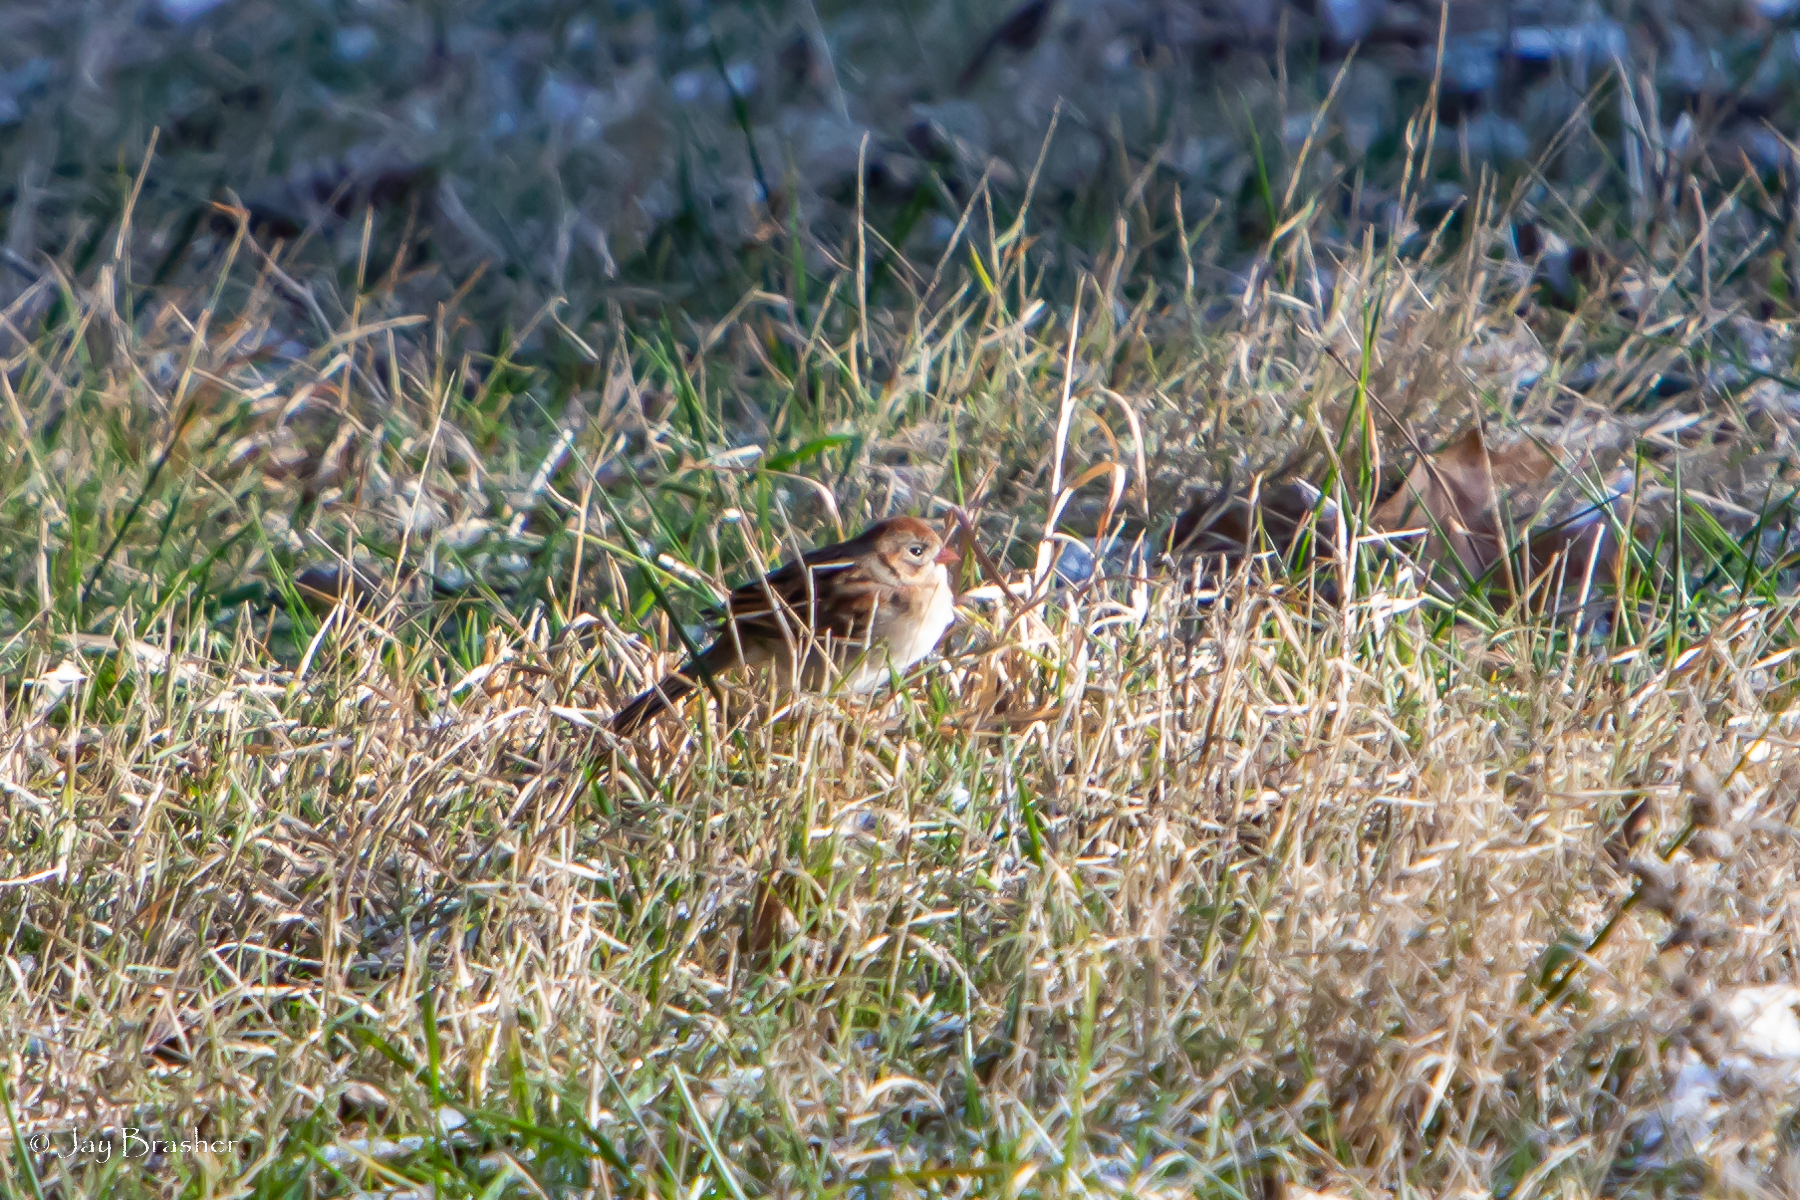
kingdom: Animalia
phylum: Chordata
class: Aves
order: Passeriformes
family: Passerellidae
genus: Spizella
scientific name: Spizella pusilla
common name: Field sparrow
